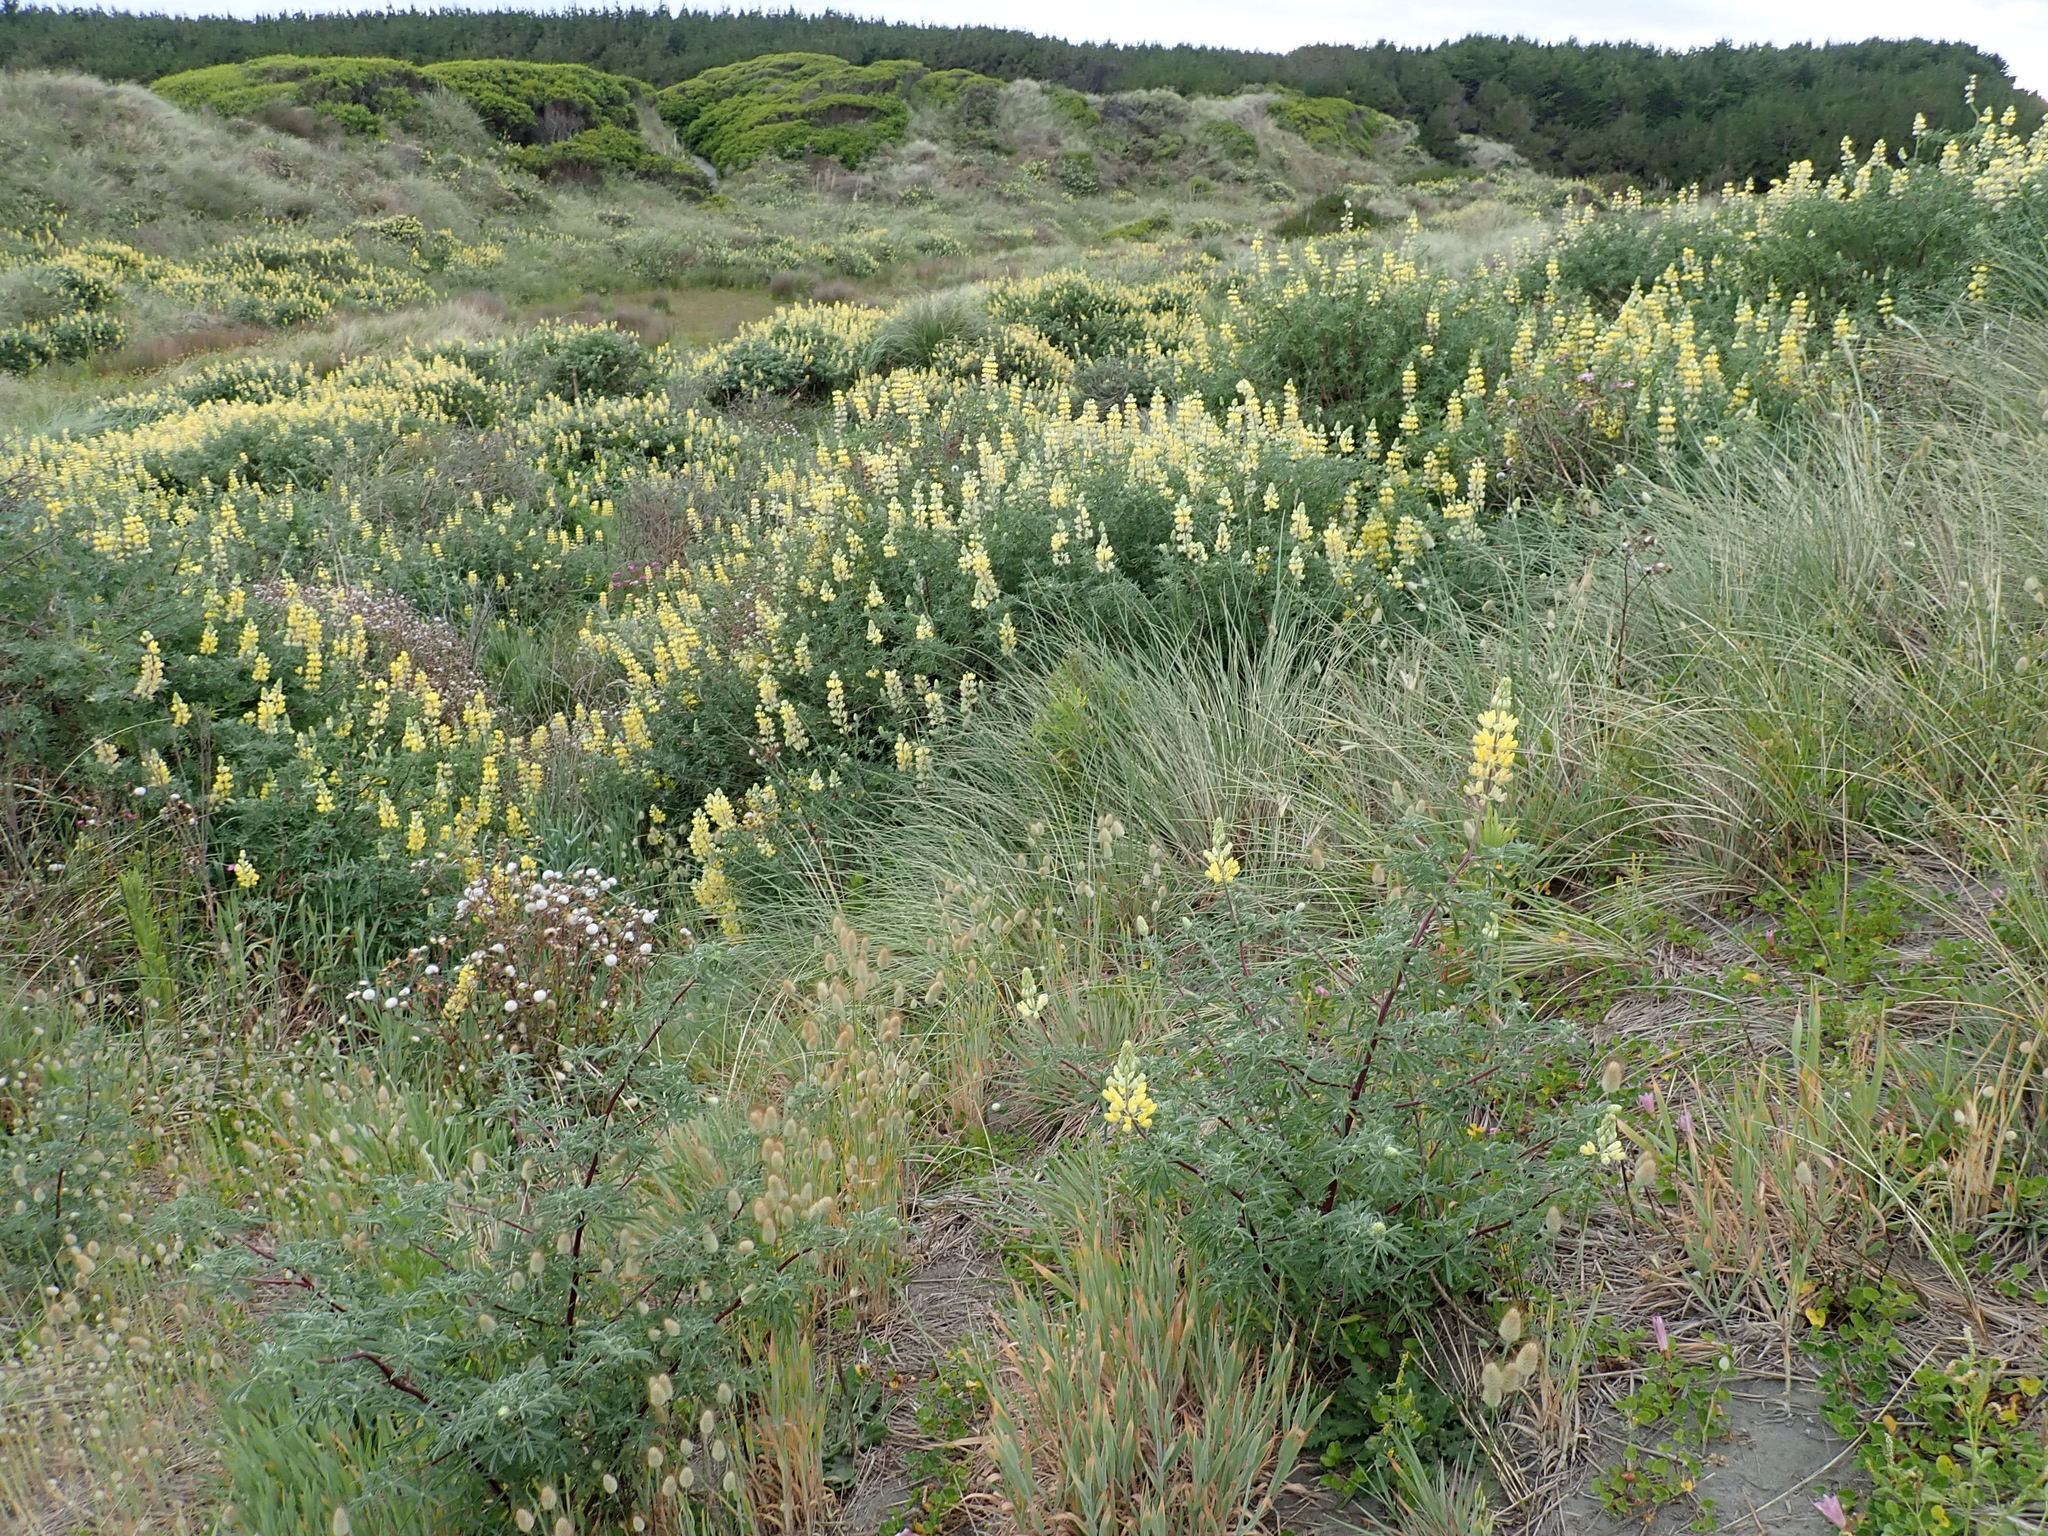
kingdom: Plantae
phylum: Tracheophyta
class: Magnoliopsida
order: Fabales
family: Fabaceae
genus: Lupinus
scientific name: Lupinus arboreus
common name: Yellow bush lupine
